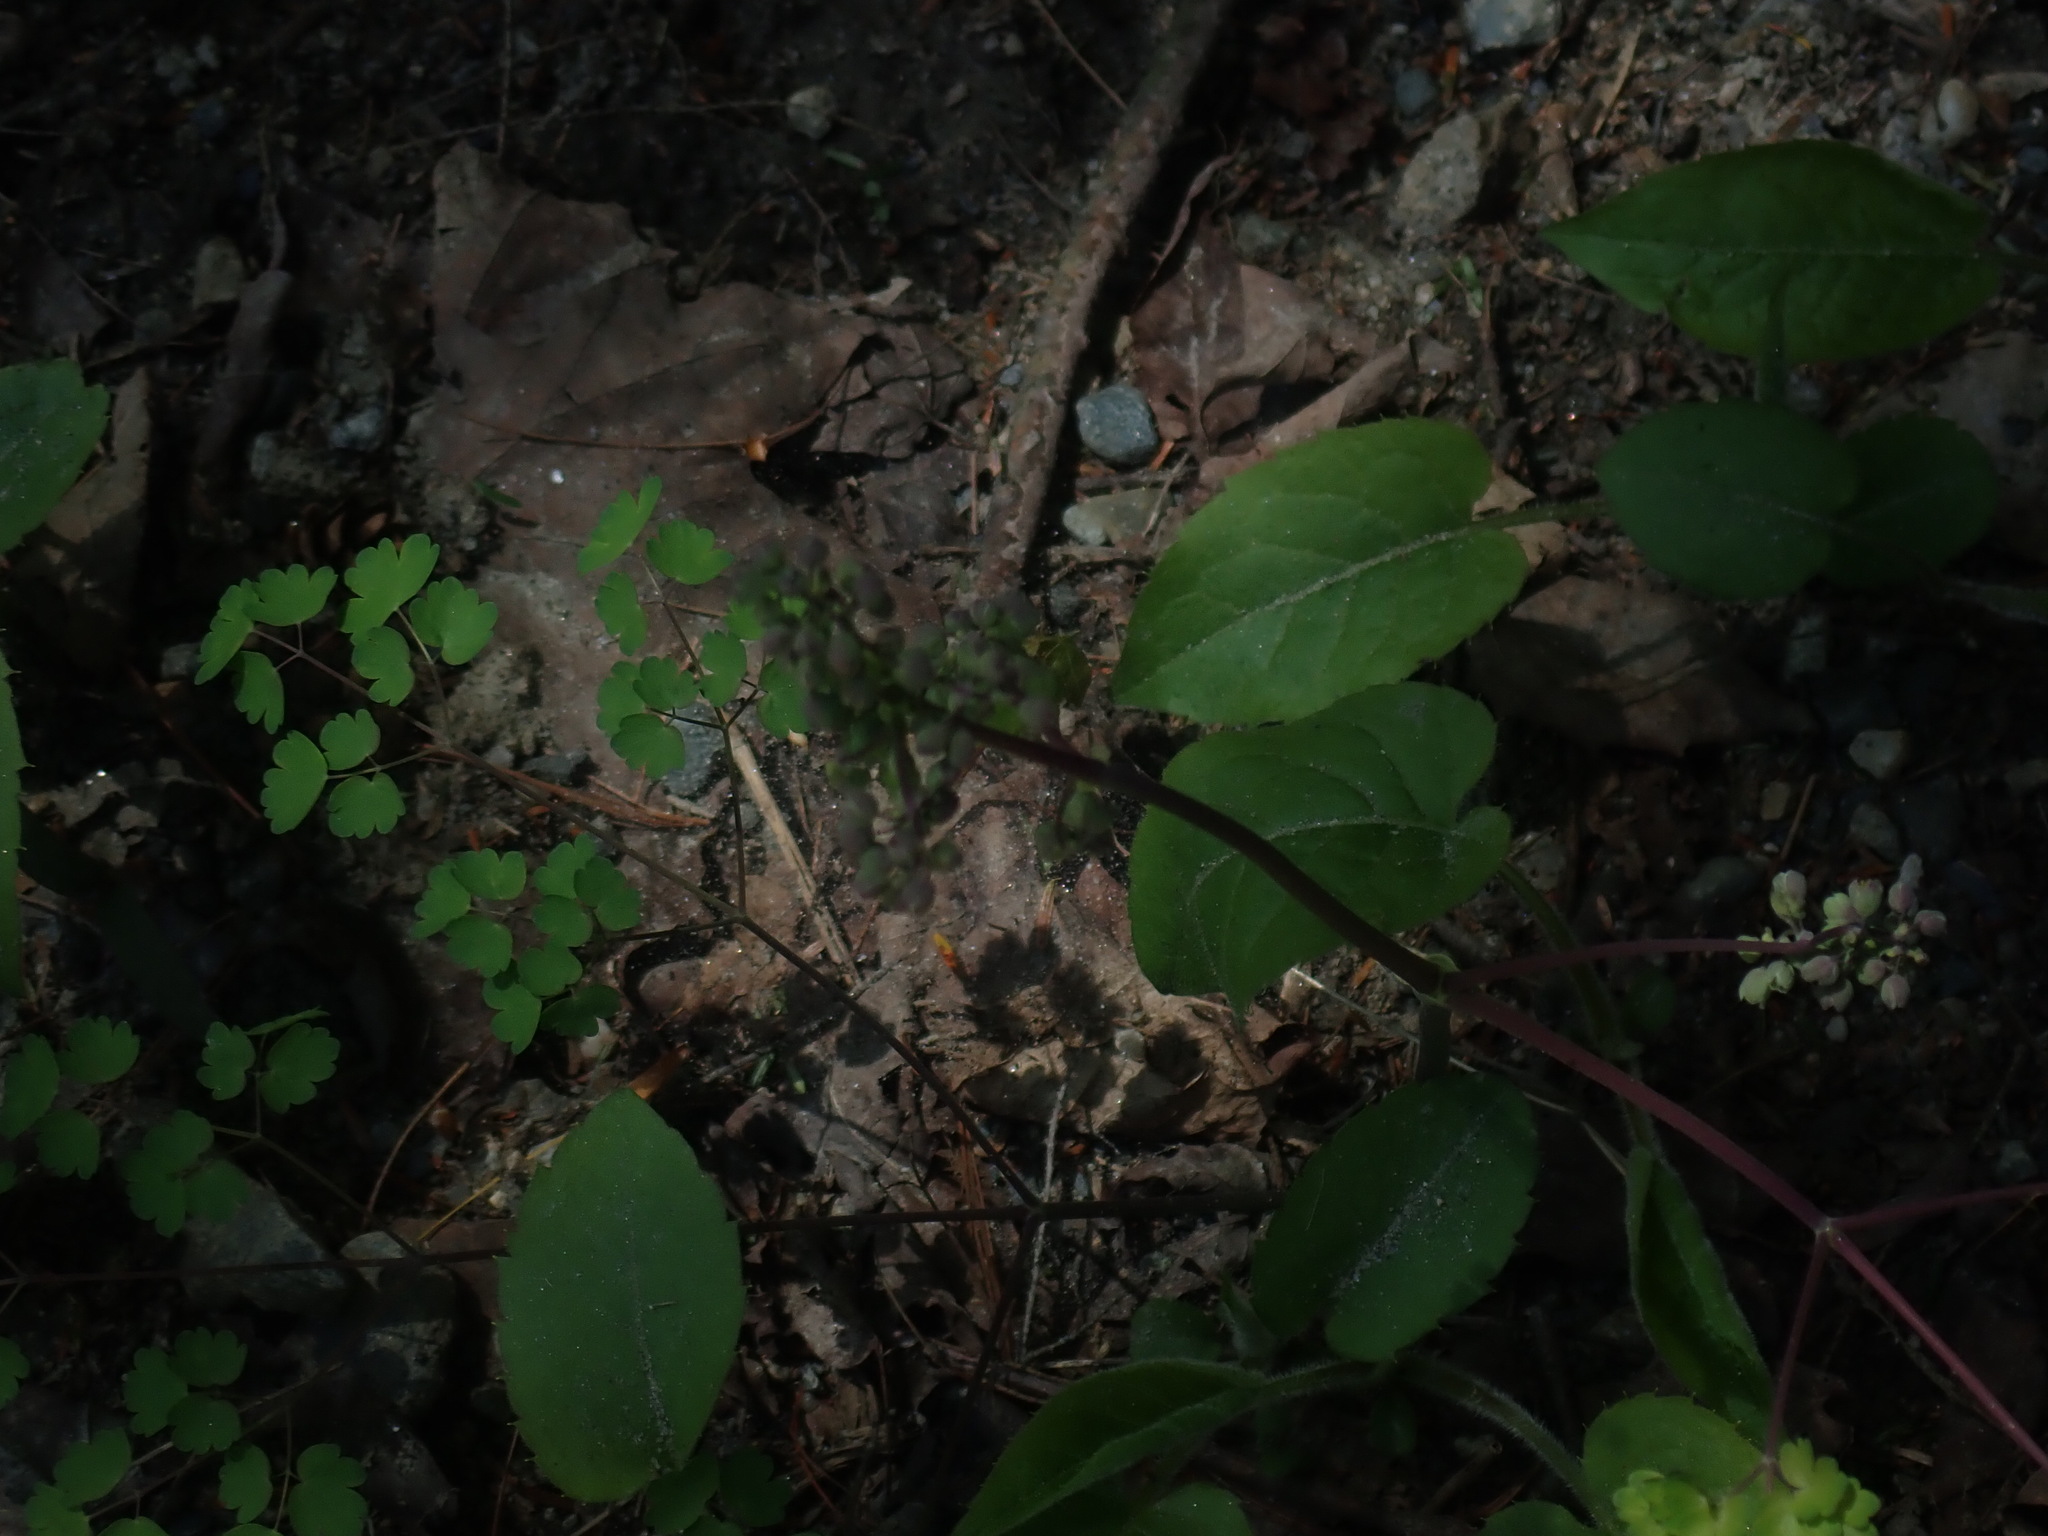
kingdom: Plantae
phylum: Tracheophyta
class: Magnoliopsida
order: Ranunculales
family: Ranunculaceae
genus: Thalictrum
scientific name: Thalictrum dioicum
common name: Early meadow-rue
